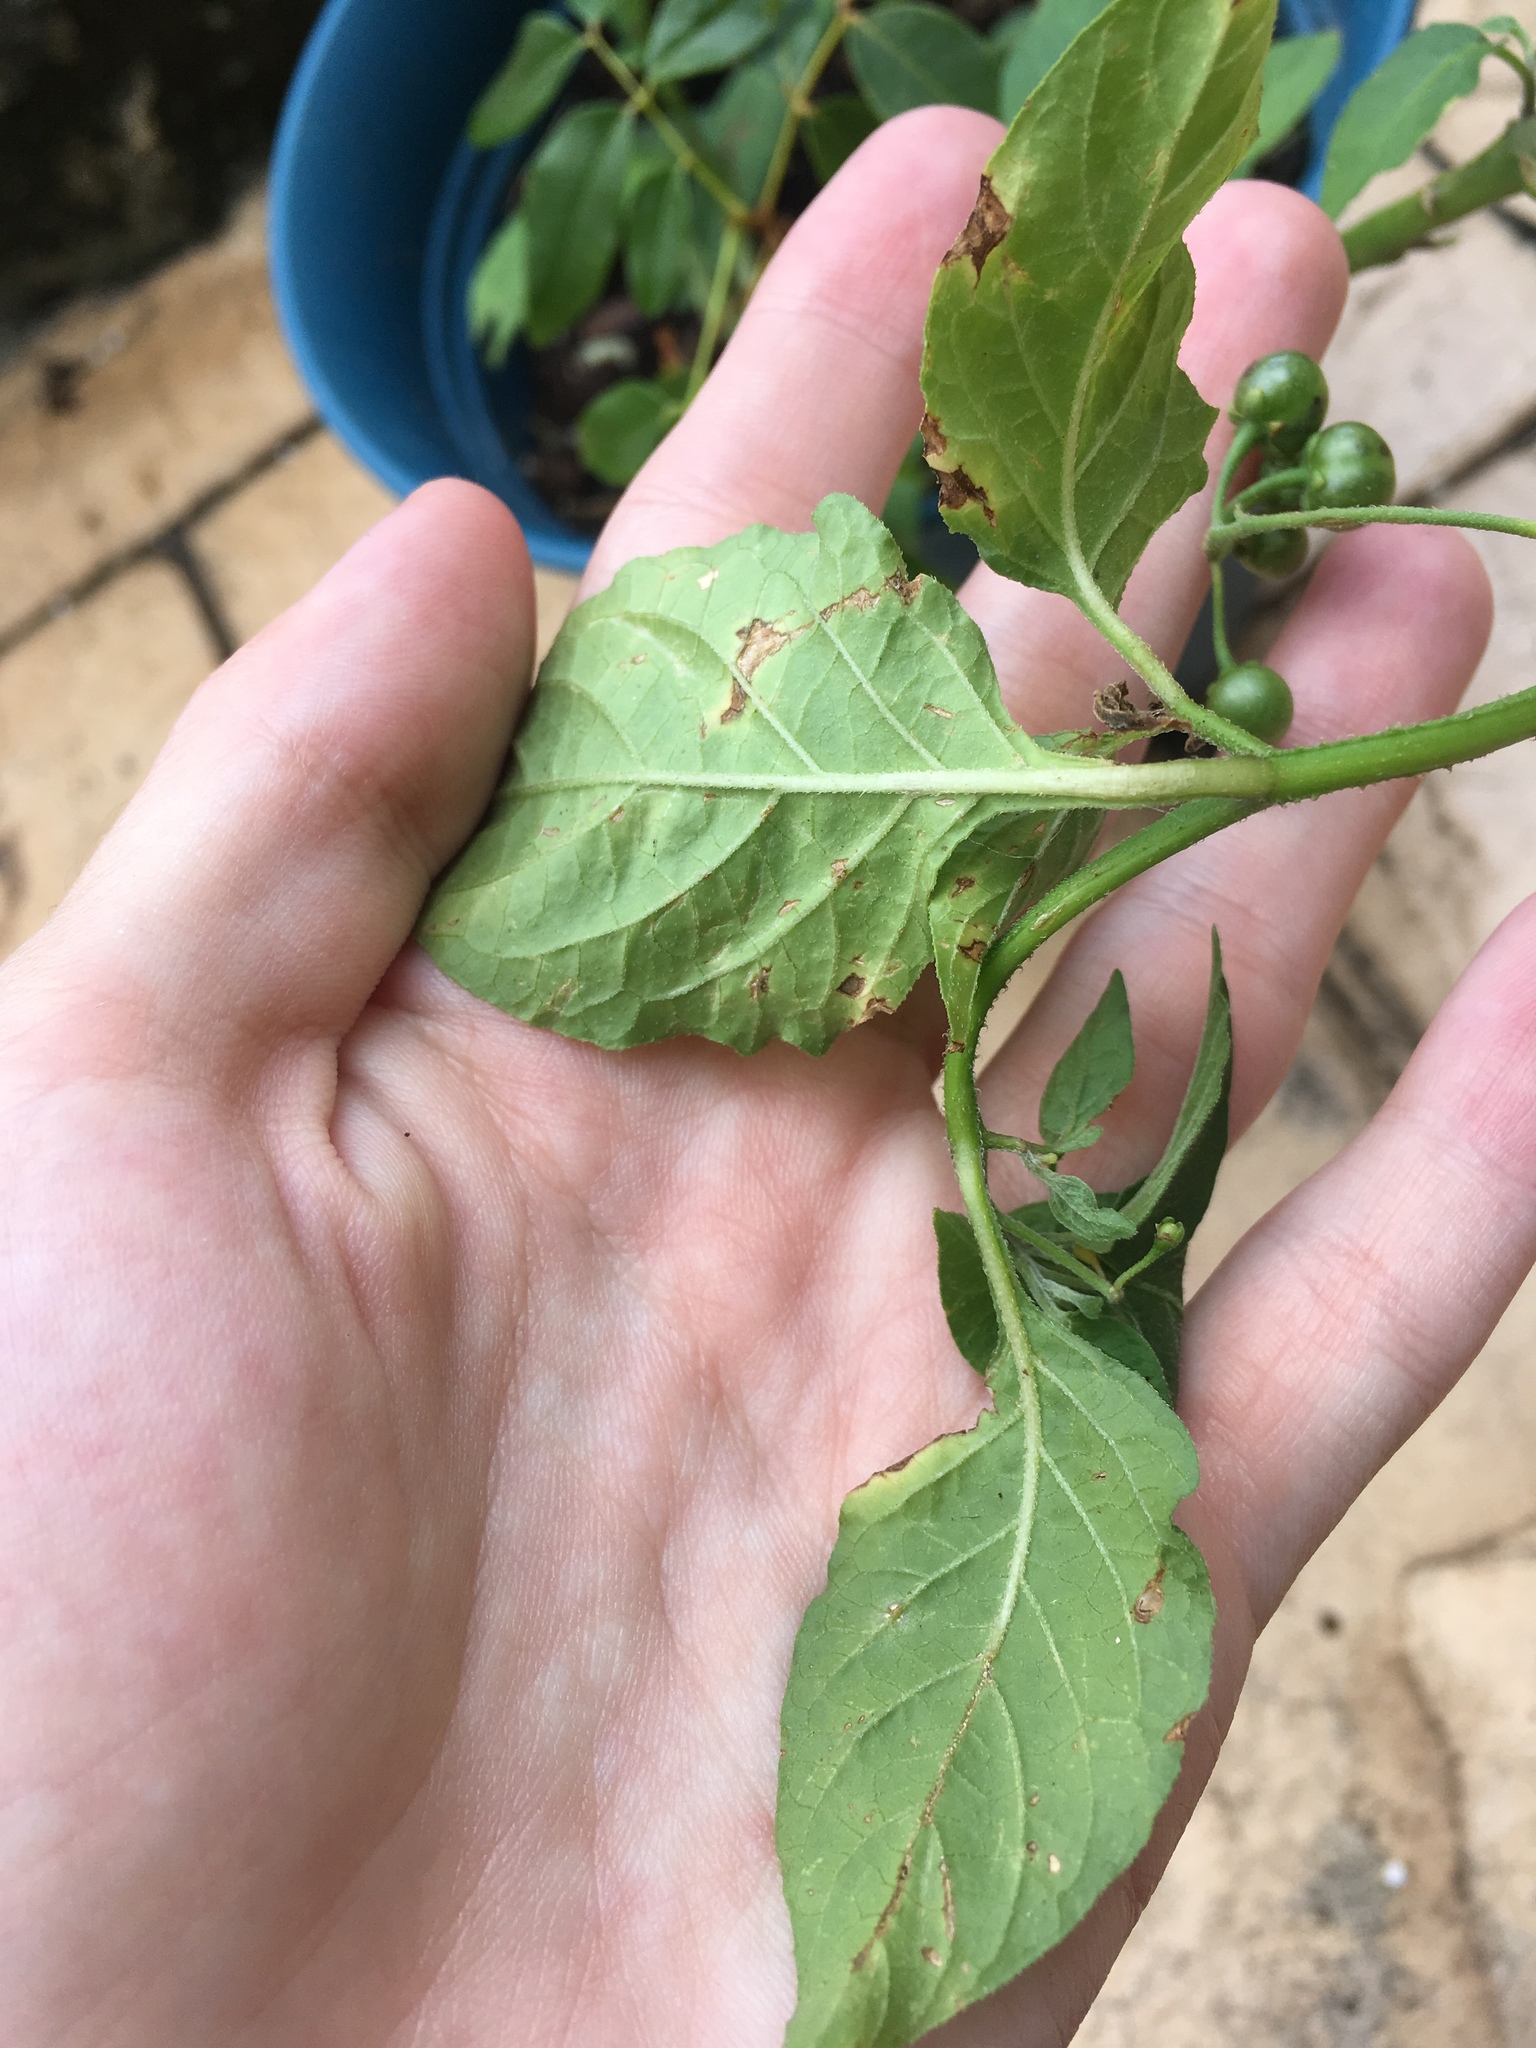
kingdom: Plantae
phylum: Tracheophyta
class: Magnoliopsida
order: Solanales
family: Solanaceae
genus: Solanum
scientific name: Solanum americanum
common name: American black nightshade
